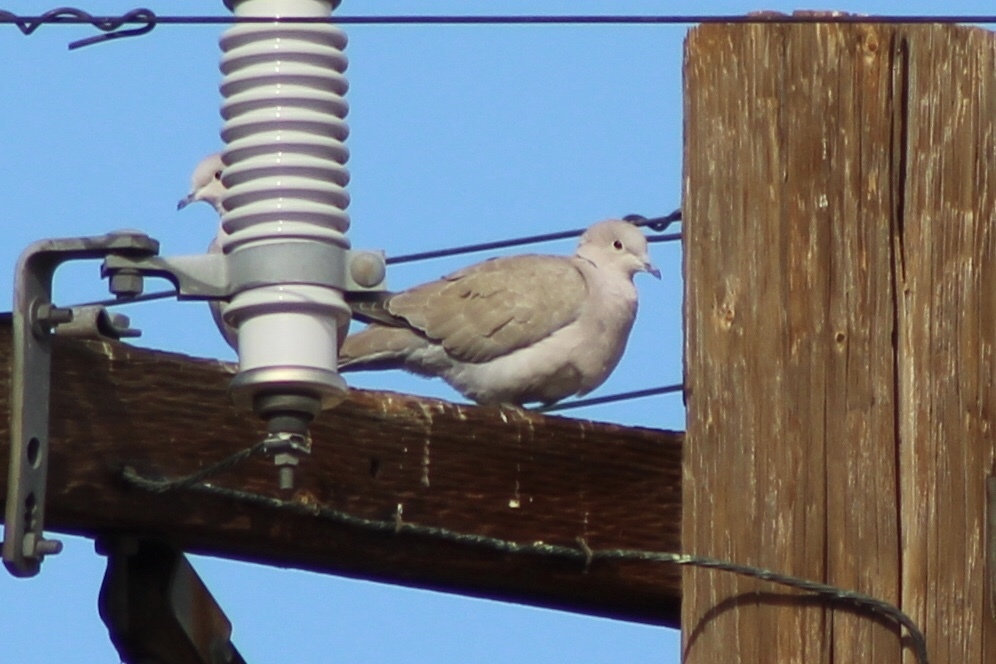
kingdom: Animalia
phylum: Chordata
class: Aves
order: Columbiformes
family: Columbidae
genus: Streptopelia
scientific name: Streptopelia decaocto
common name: Eurasian collared dove
